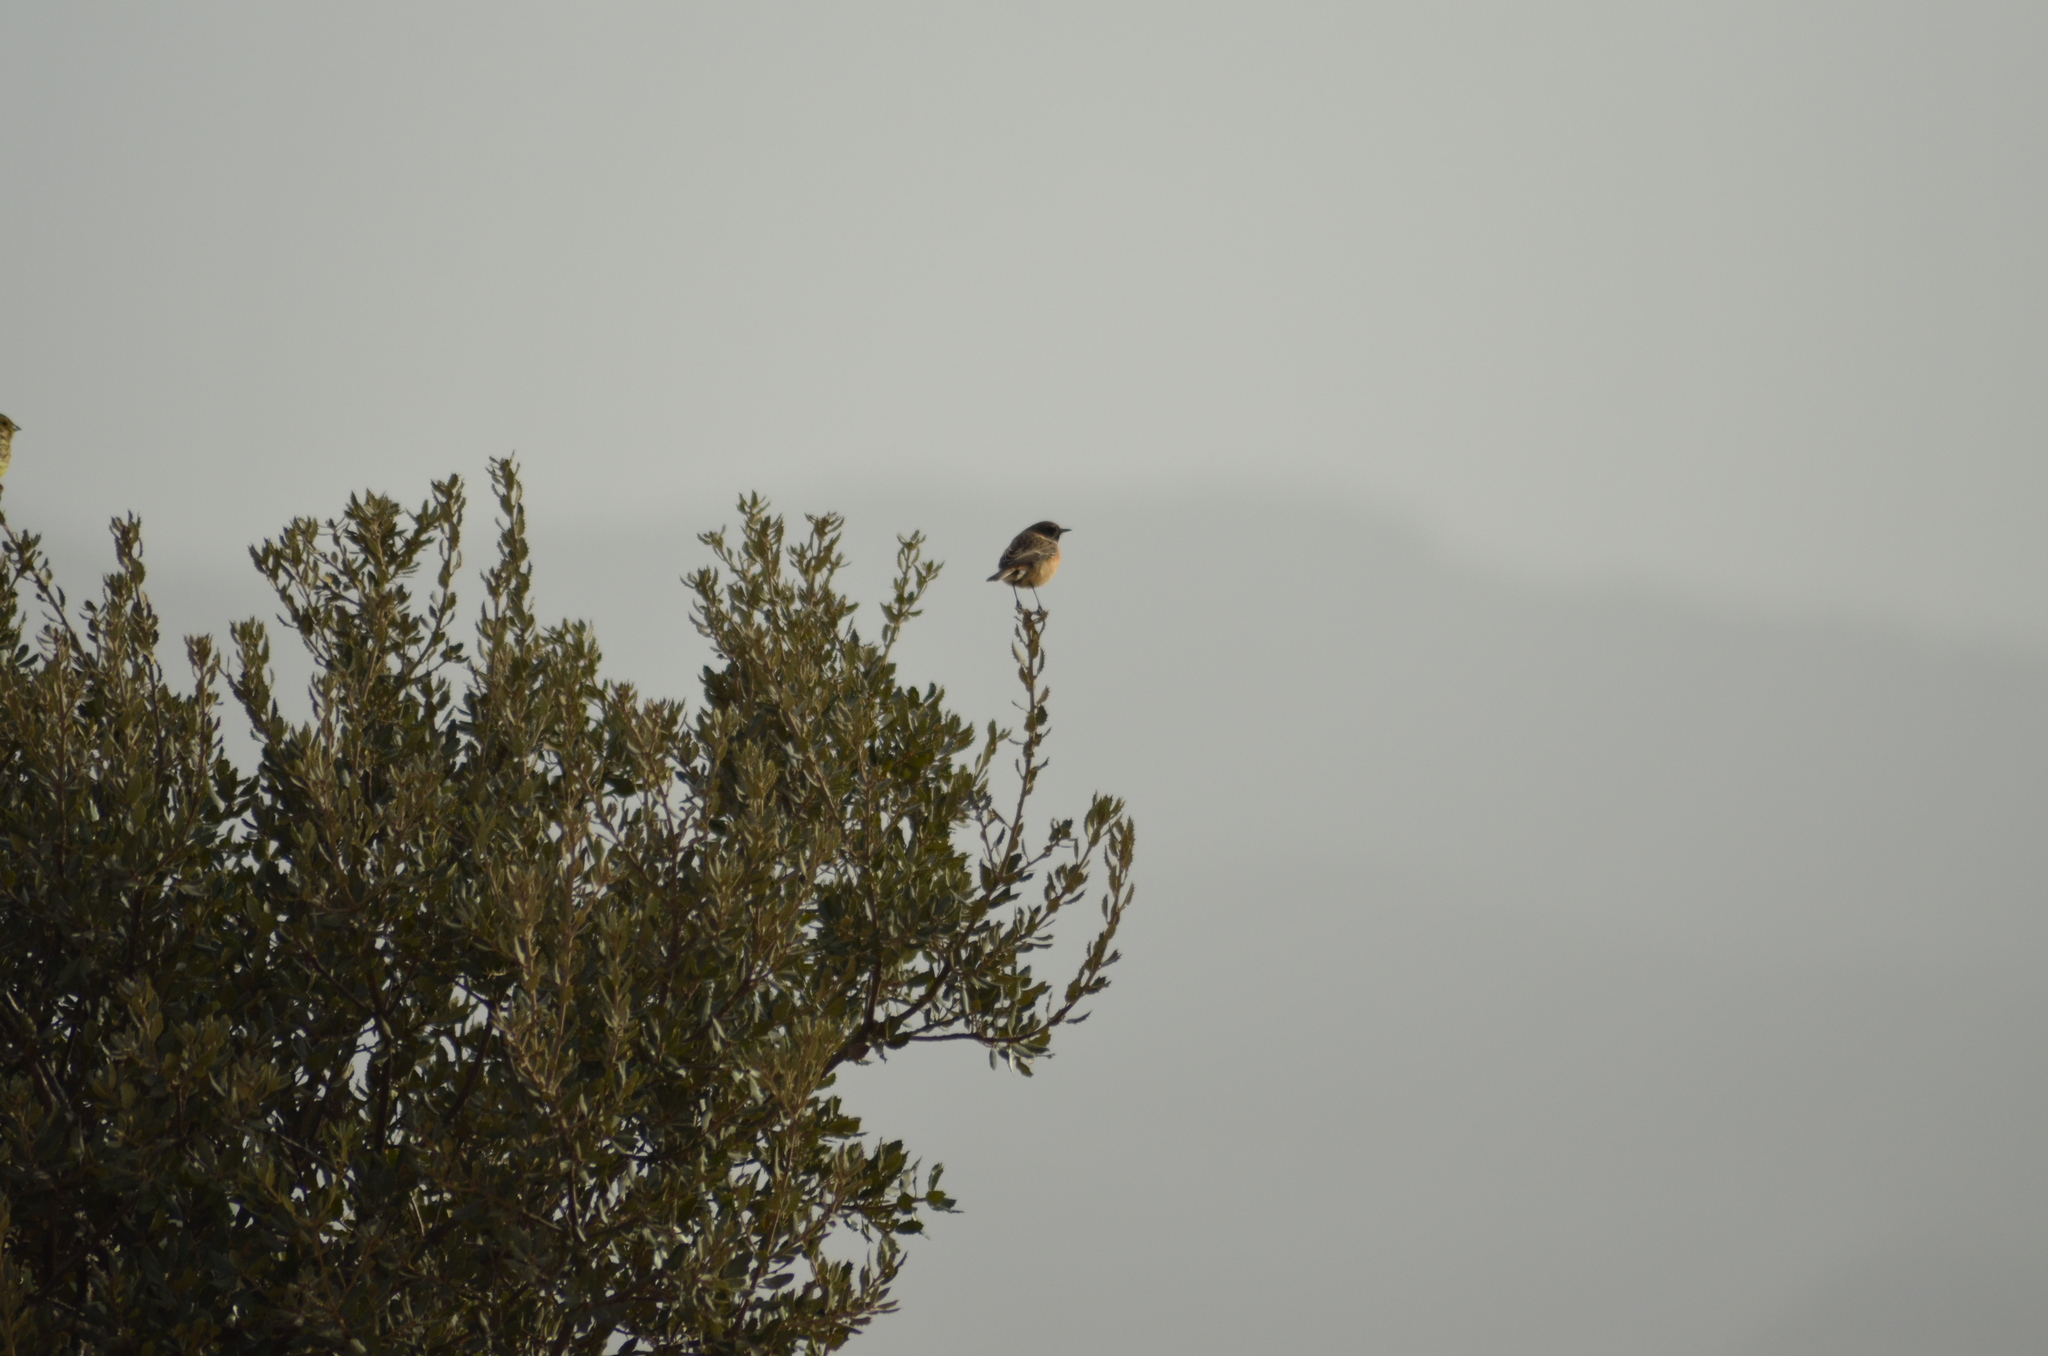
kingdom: Animalia
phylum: Chordata
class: Aves
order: Passeriformes
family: Muscicapidae
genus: Saxicola
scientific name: Saxicola rubicola
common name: European stonechat
